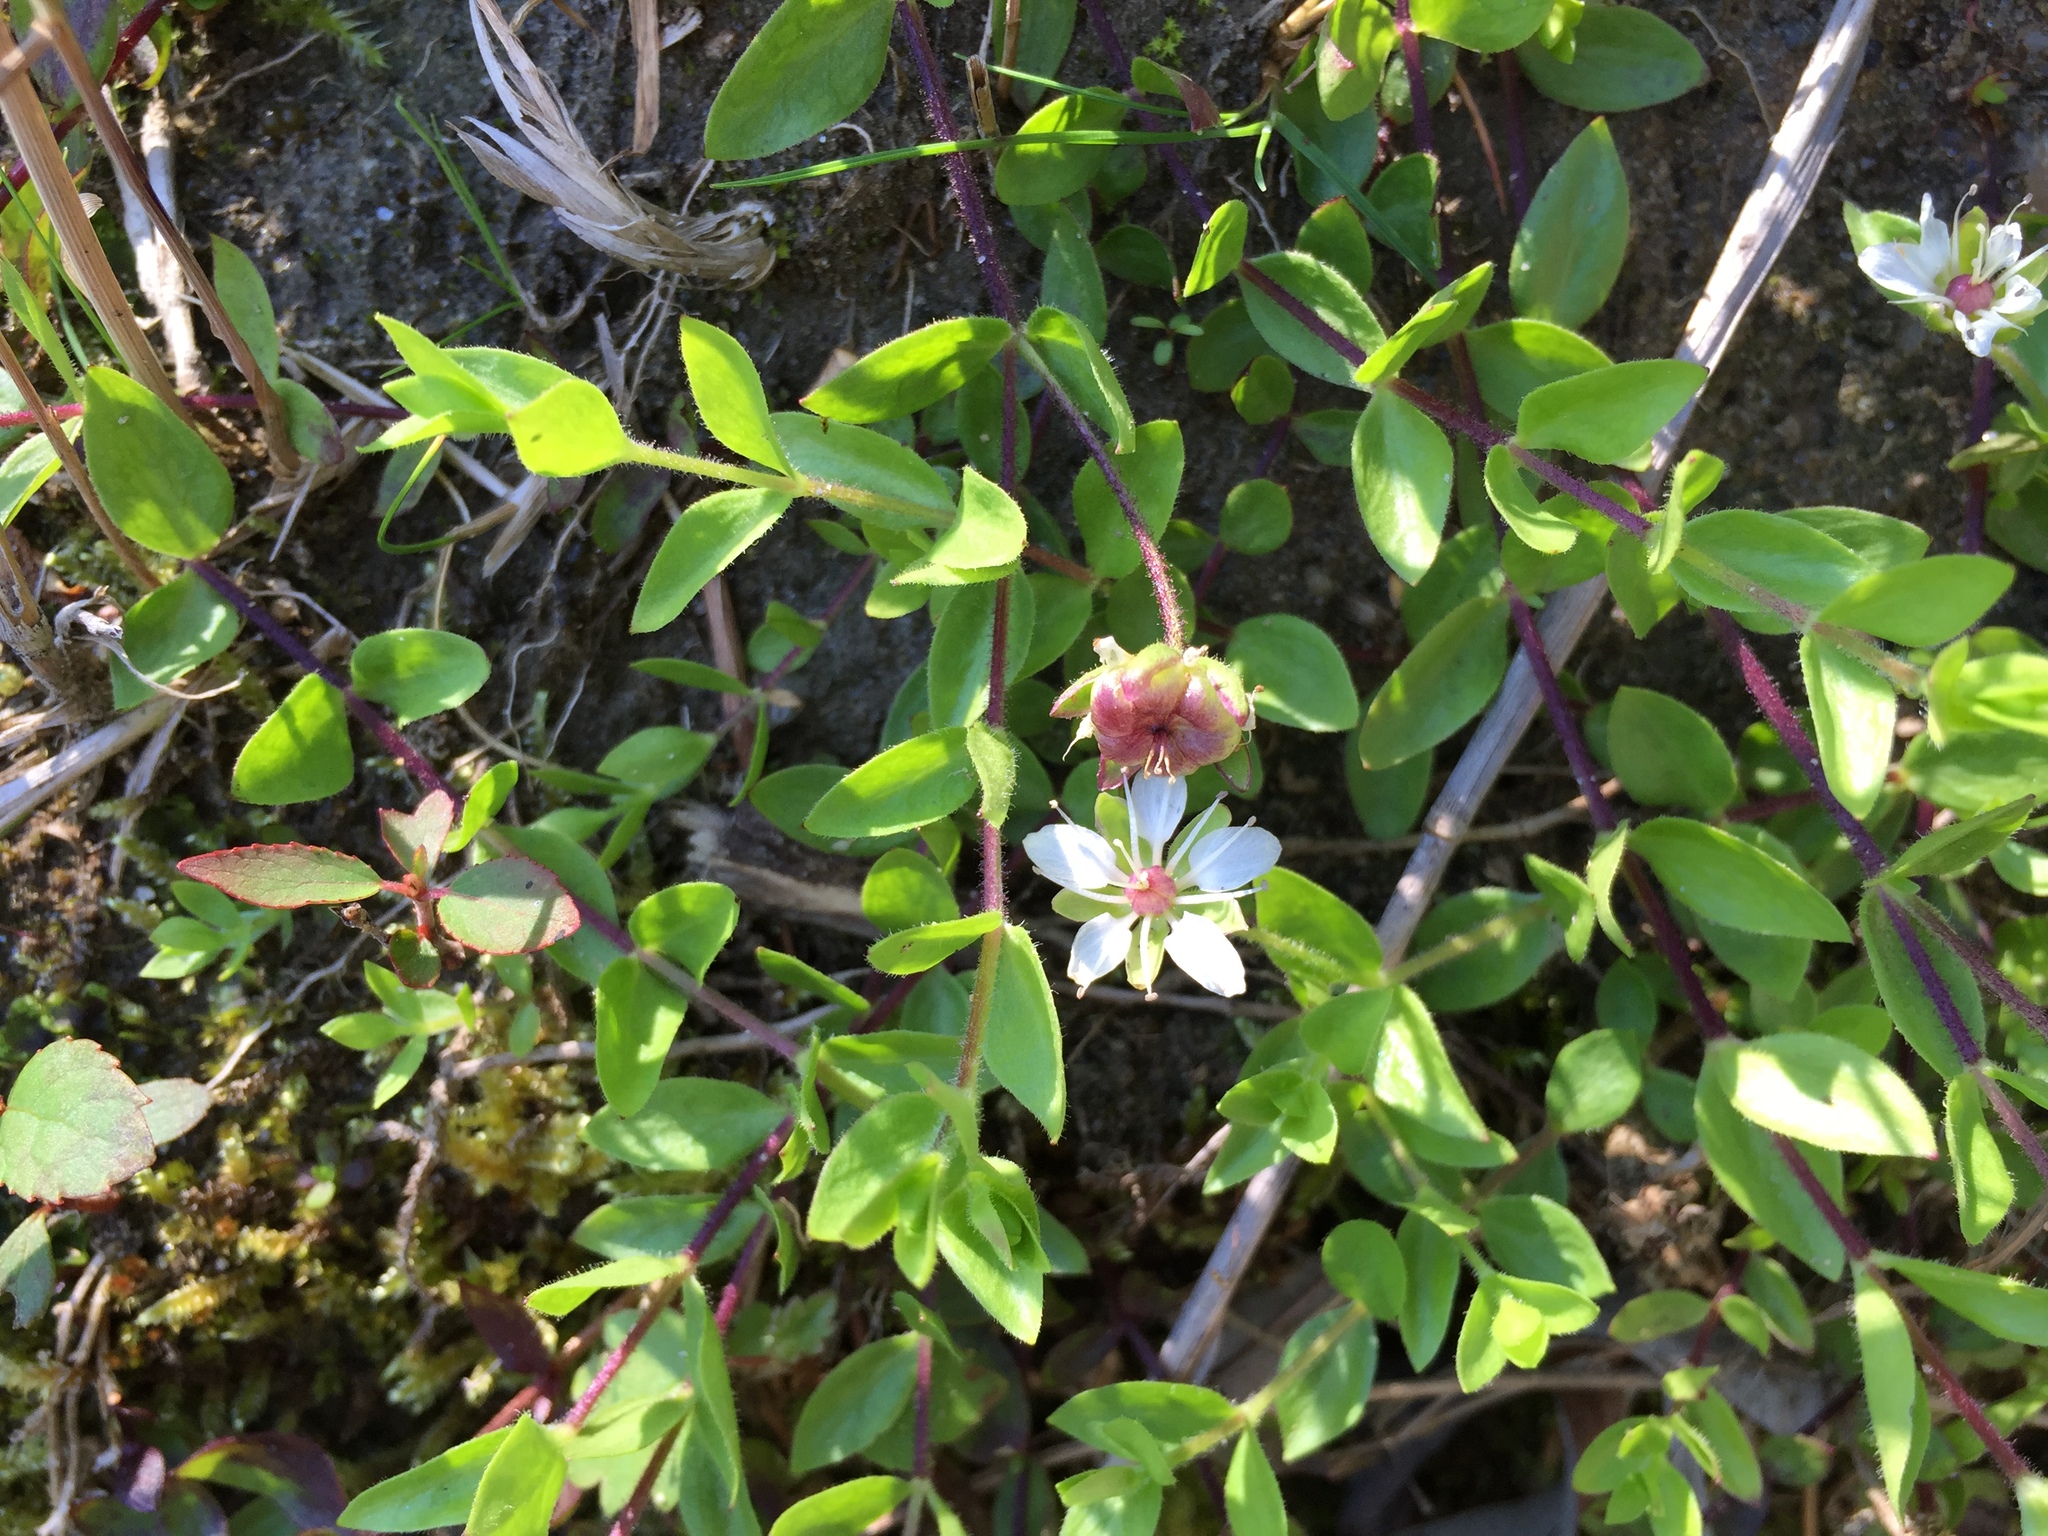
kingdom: Plantae
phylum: Tracheophyta
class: Magnoliopsida
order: Caryophyllales
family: Caryophyllaceae
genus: Wilhelmsia
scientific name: Wilhelmsia physodes
